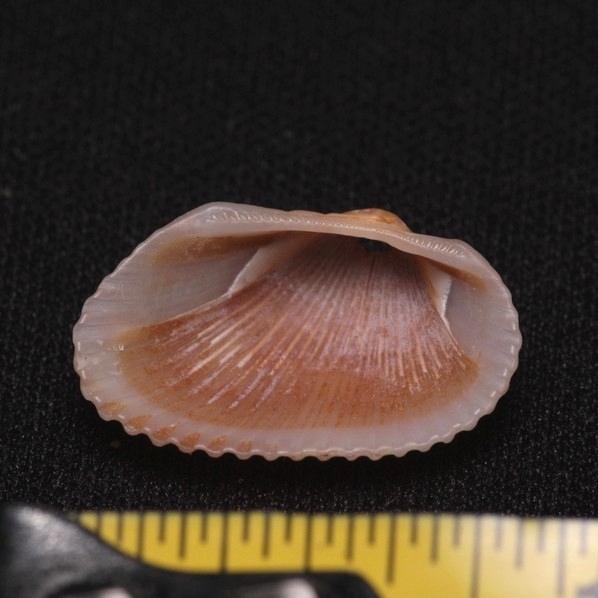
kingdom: Animalia
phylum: Mollusca
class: Bivalvia
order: Arcida
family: Arcidae
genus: Anadara
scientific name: Anadara transversa
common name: Transverse ark
